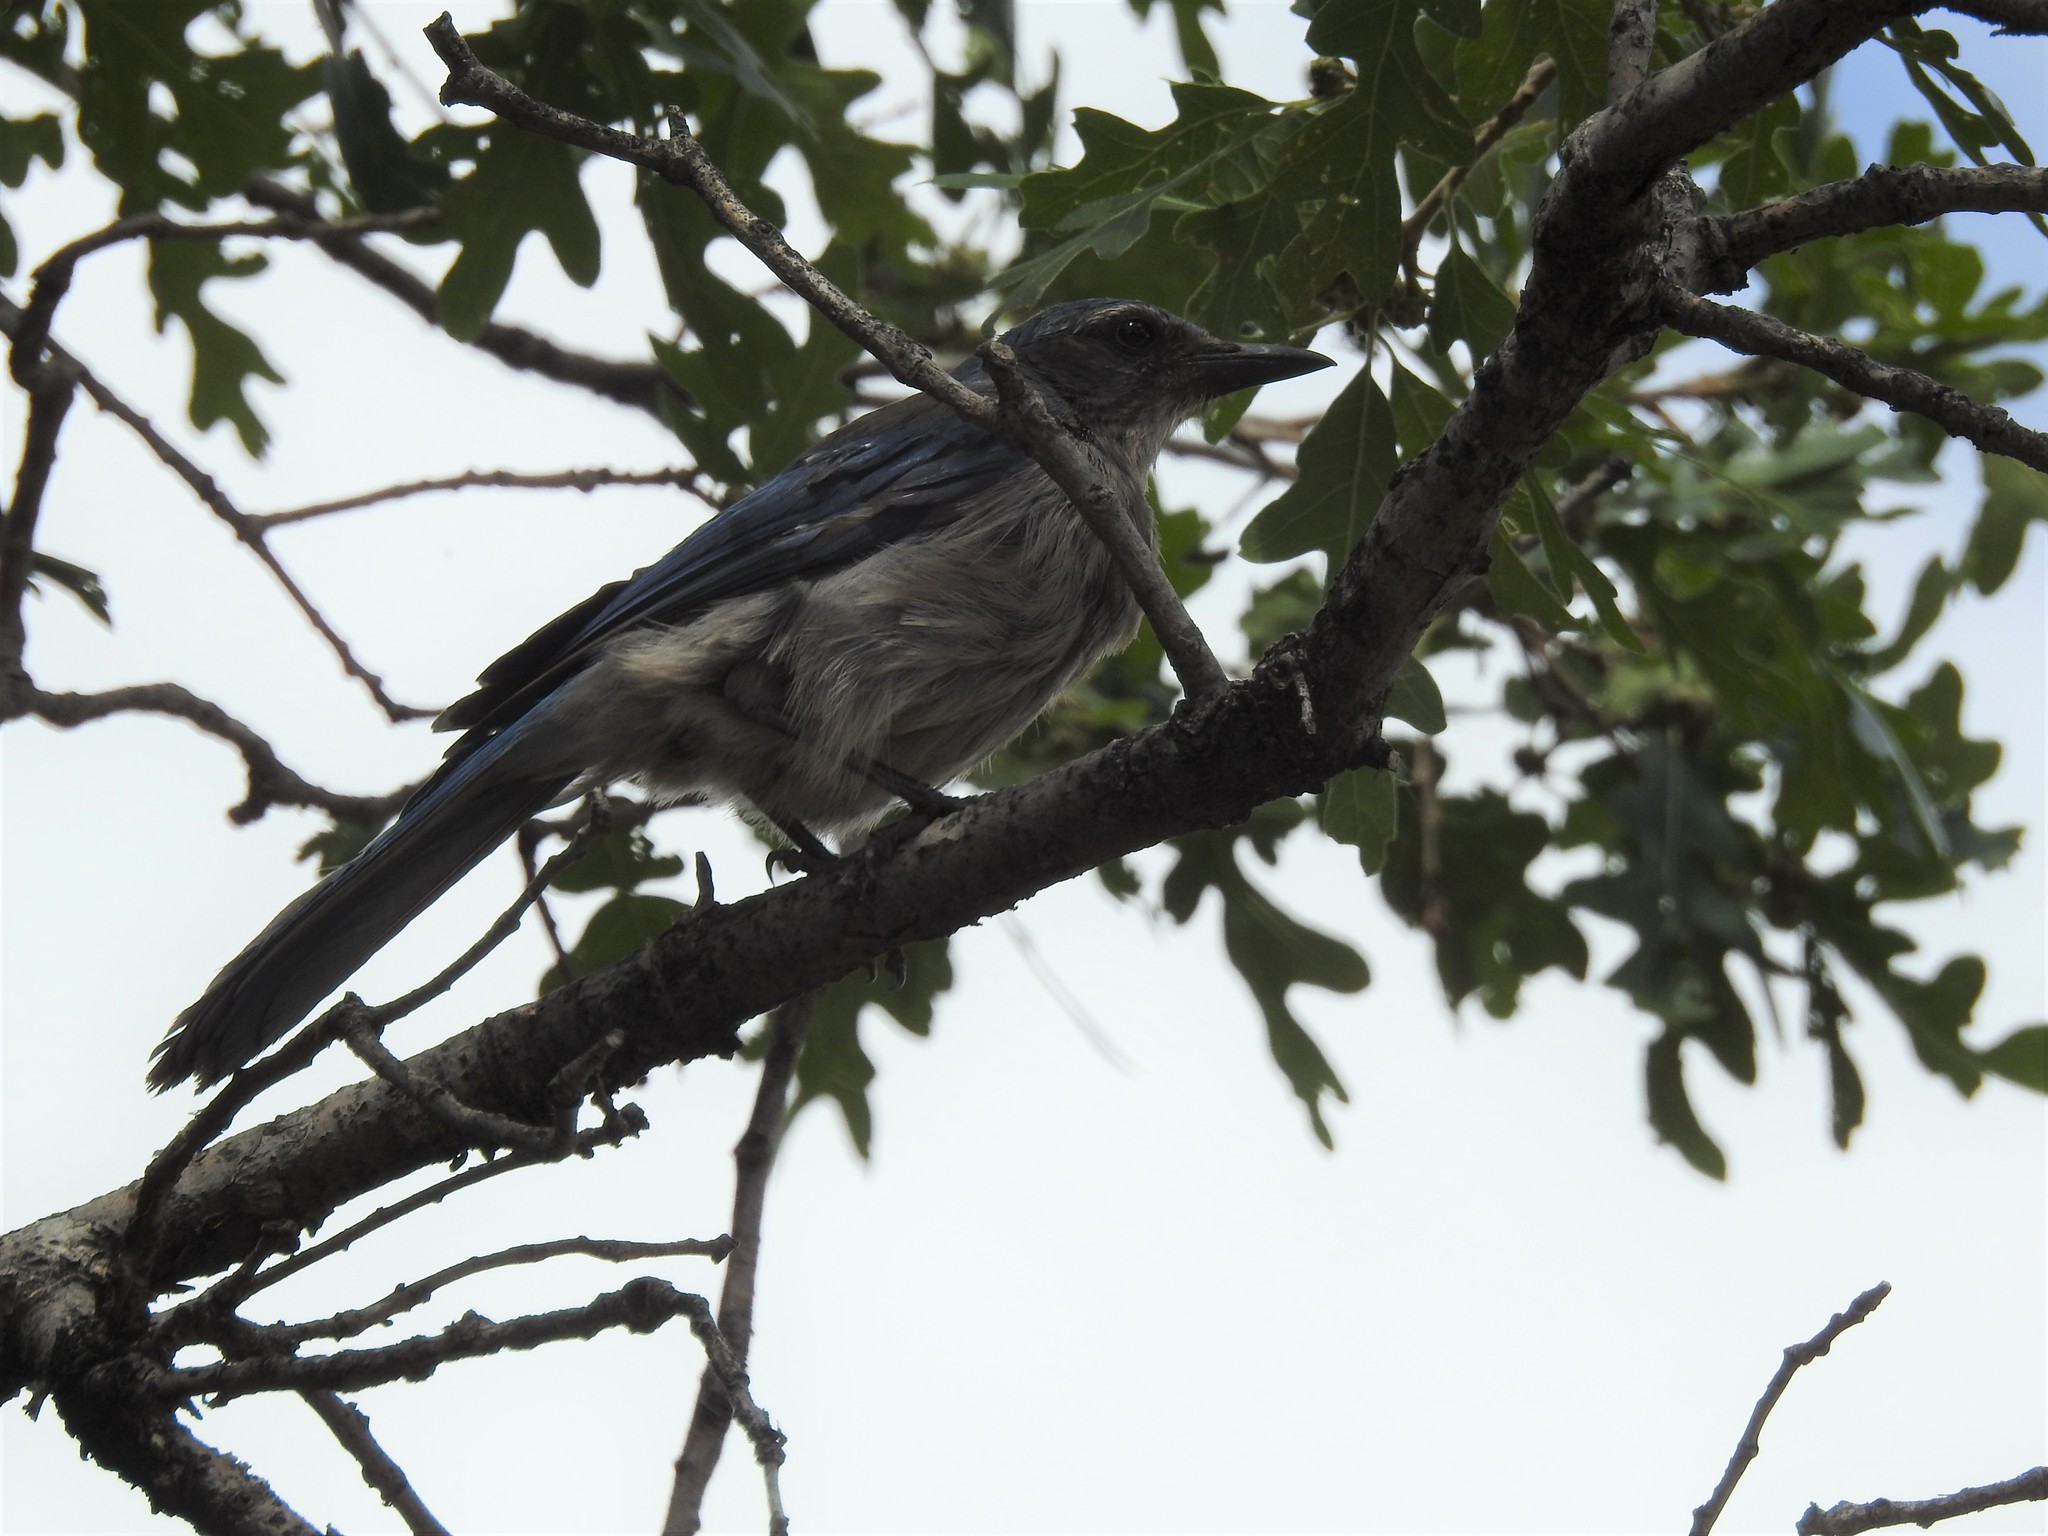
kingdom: Animalia
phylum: Chordata
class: Aves
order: Passeriformes
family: Corvidae
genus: Aphelocoma
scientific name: Aphelocoma woodhouseii
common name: Woodhouse's scrub-jay
